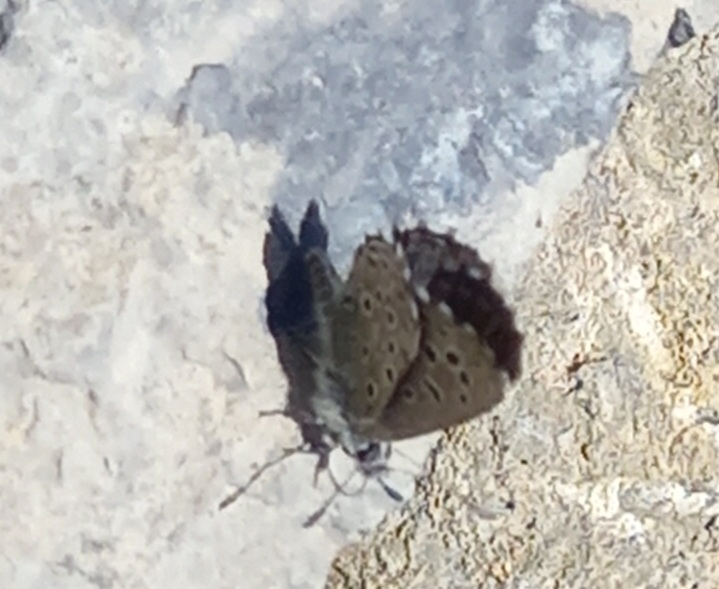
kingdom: Animalia
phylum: Arthropoda
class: Insecta
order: Lepidoptera
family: Lycaenidae
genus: Pseudophilotes
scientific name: Pseudophilotes baton
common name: Baton blue
